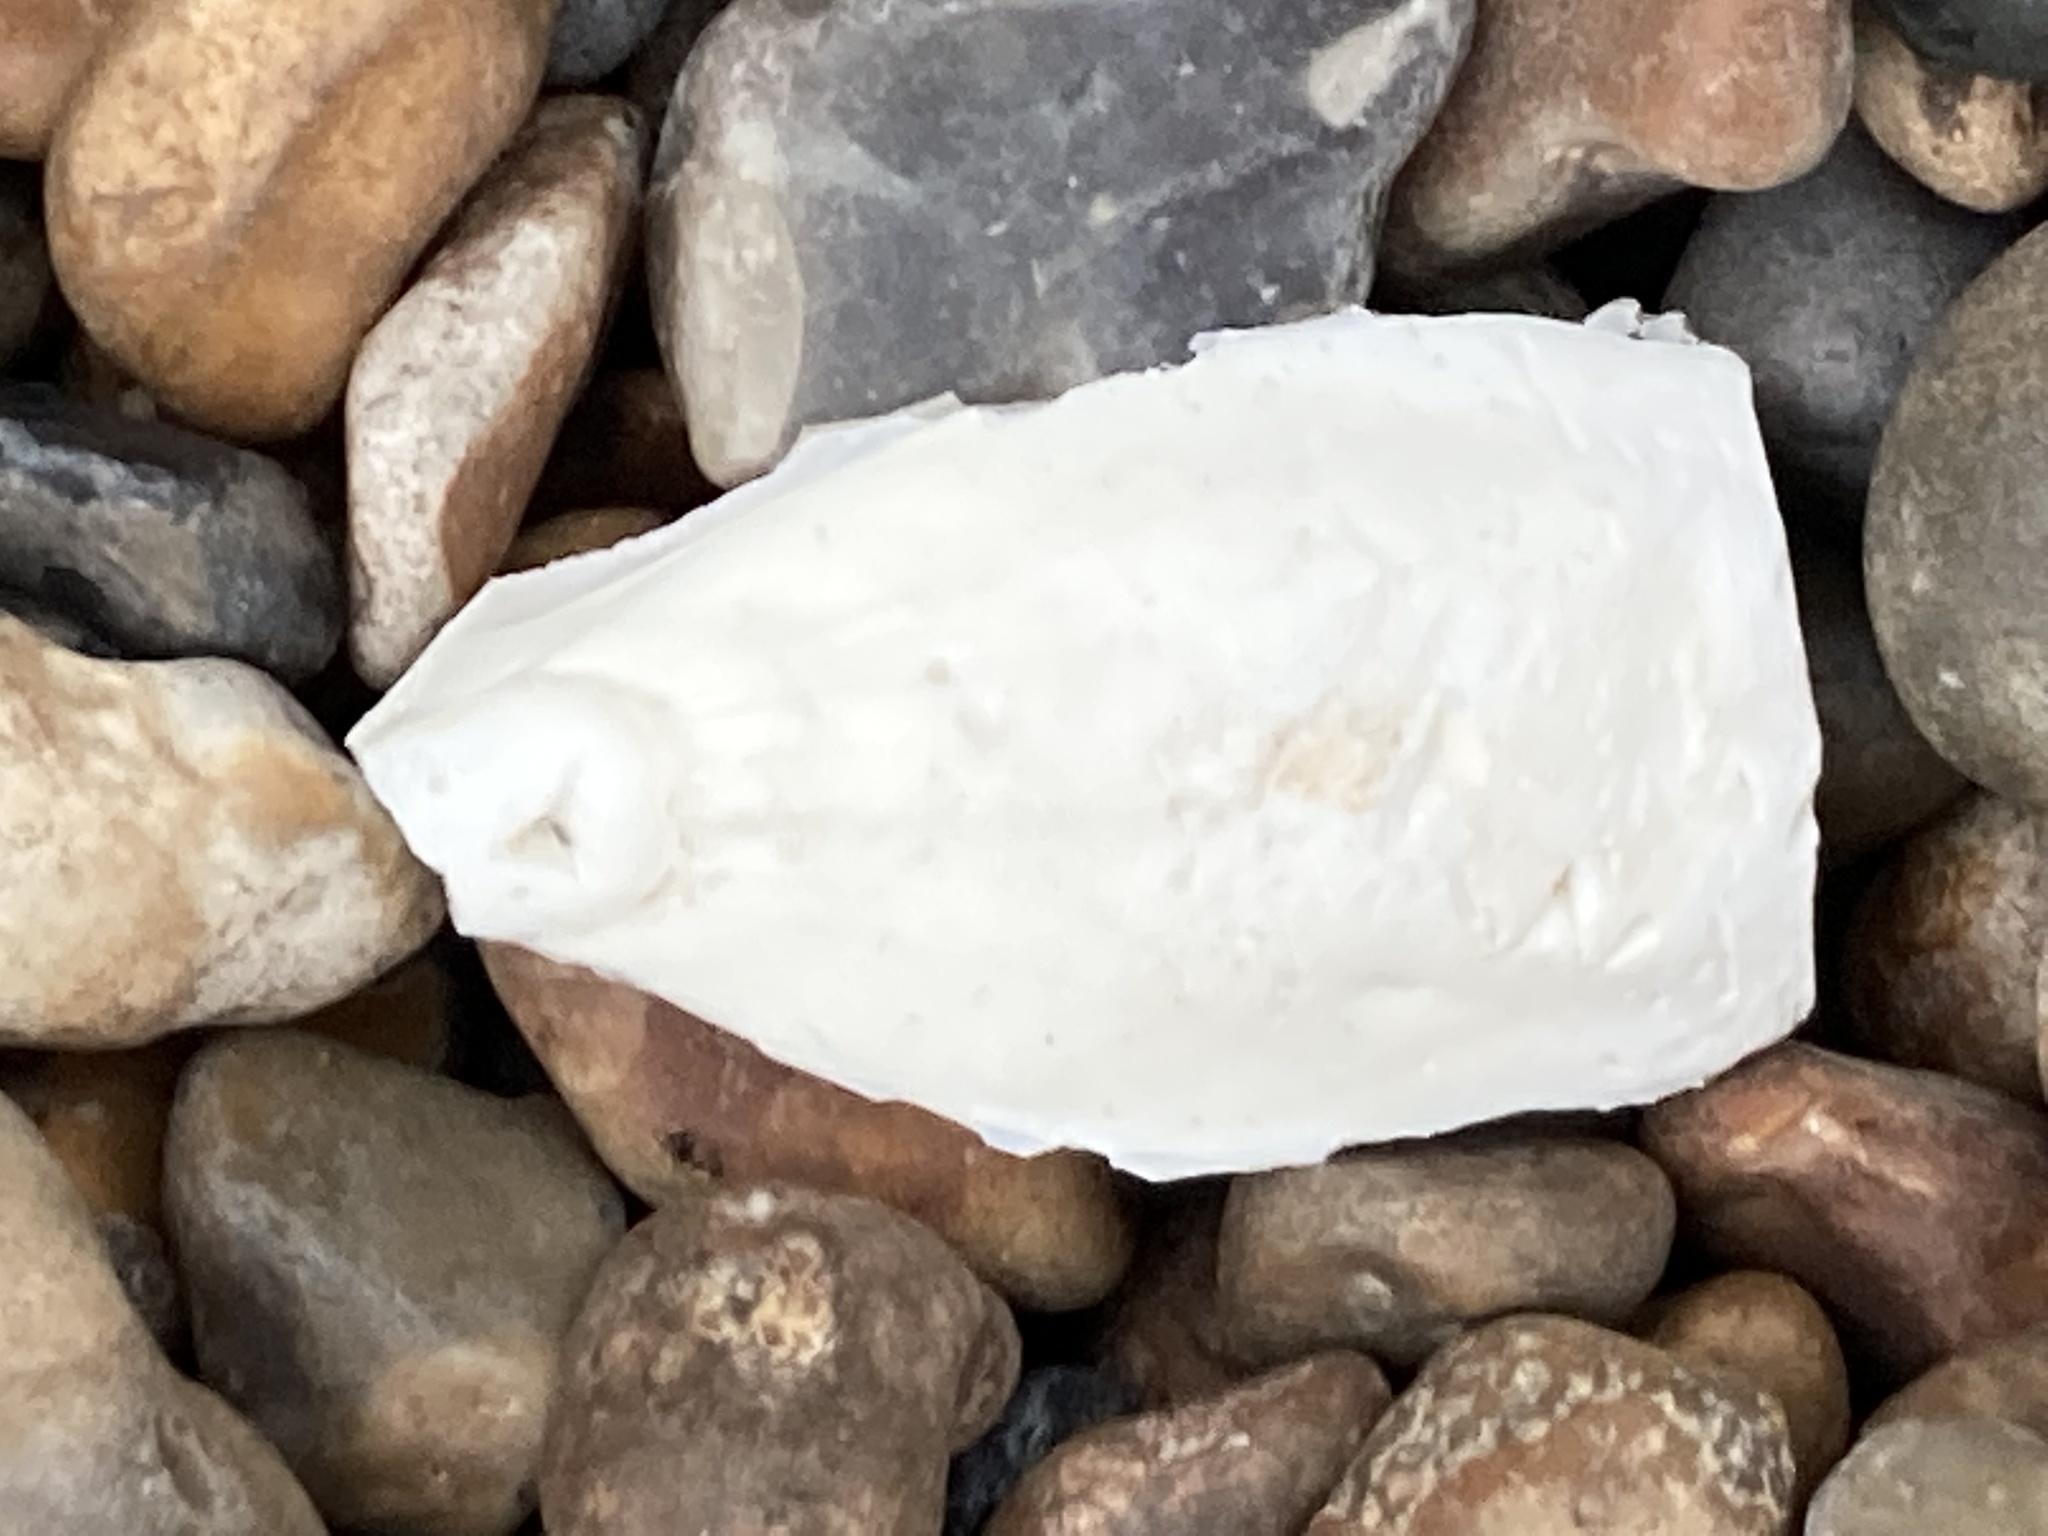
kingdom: Animalia
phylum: Mollusca
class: Cephalopoda
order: Sepiida
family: Sepiidae
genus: Sepia
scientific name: Sepia officinalis
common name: Common cuttlefish
